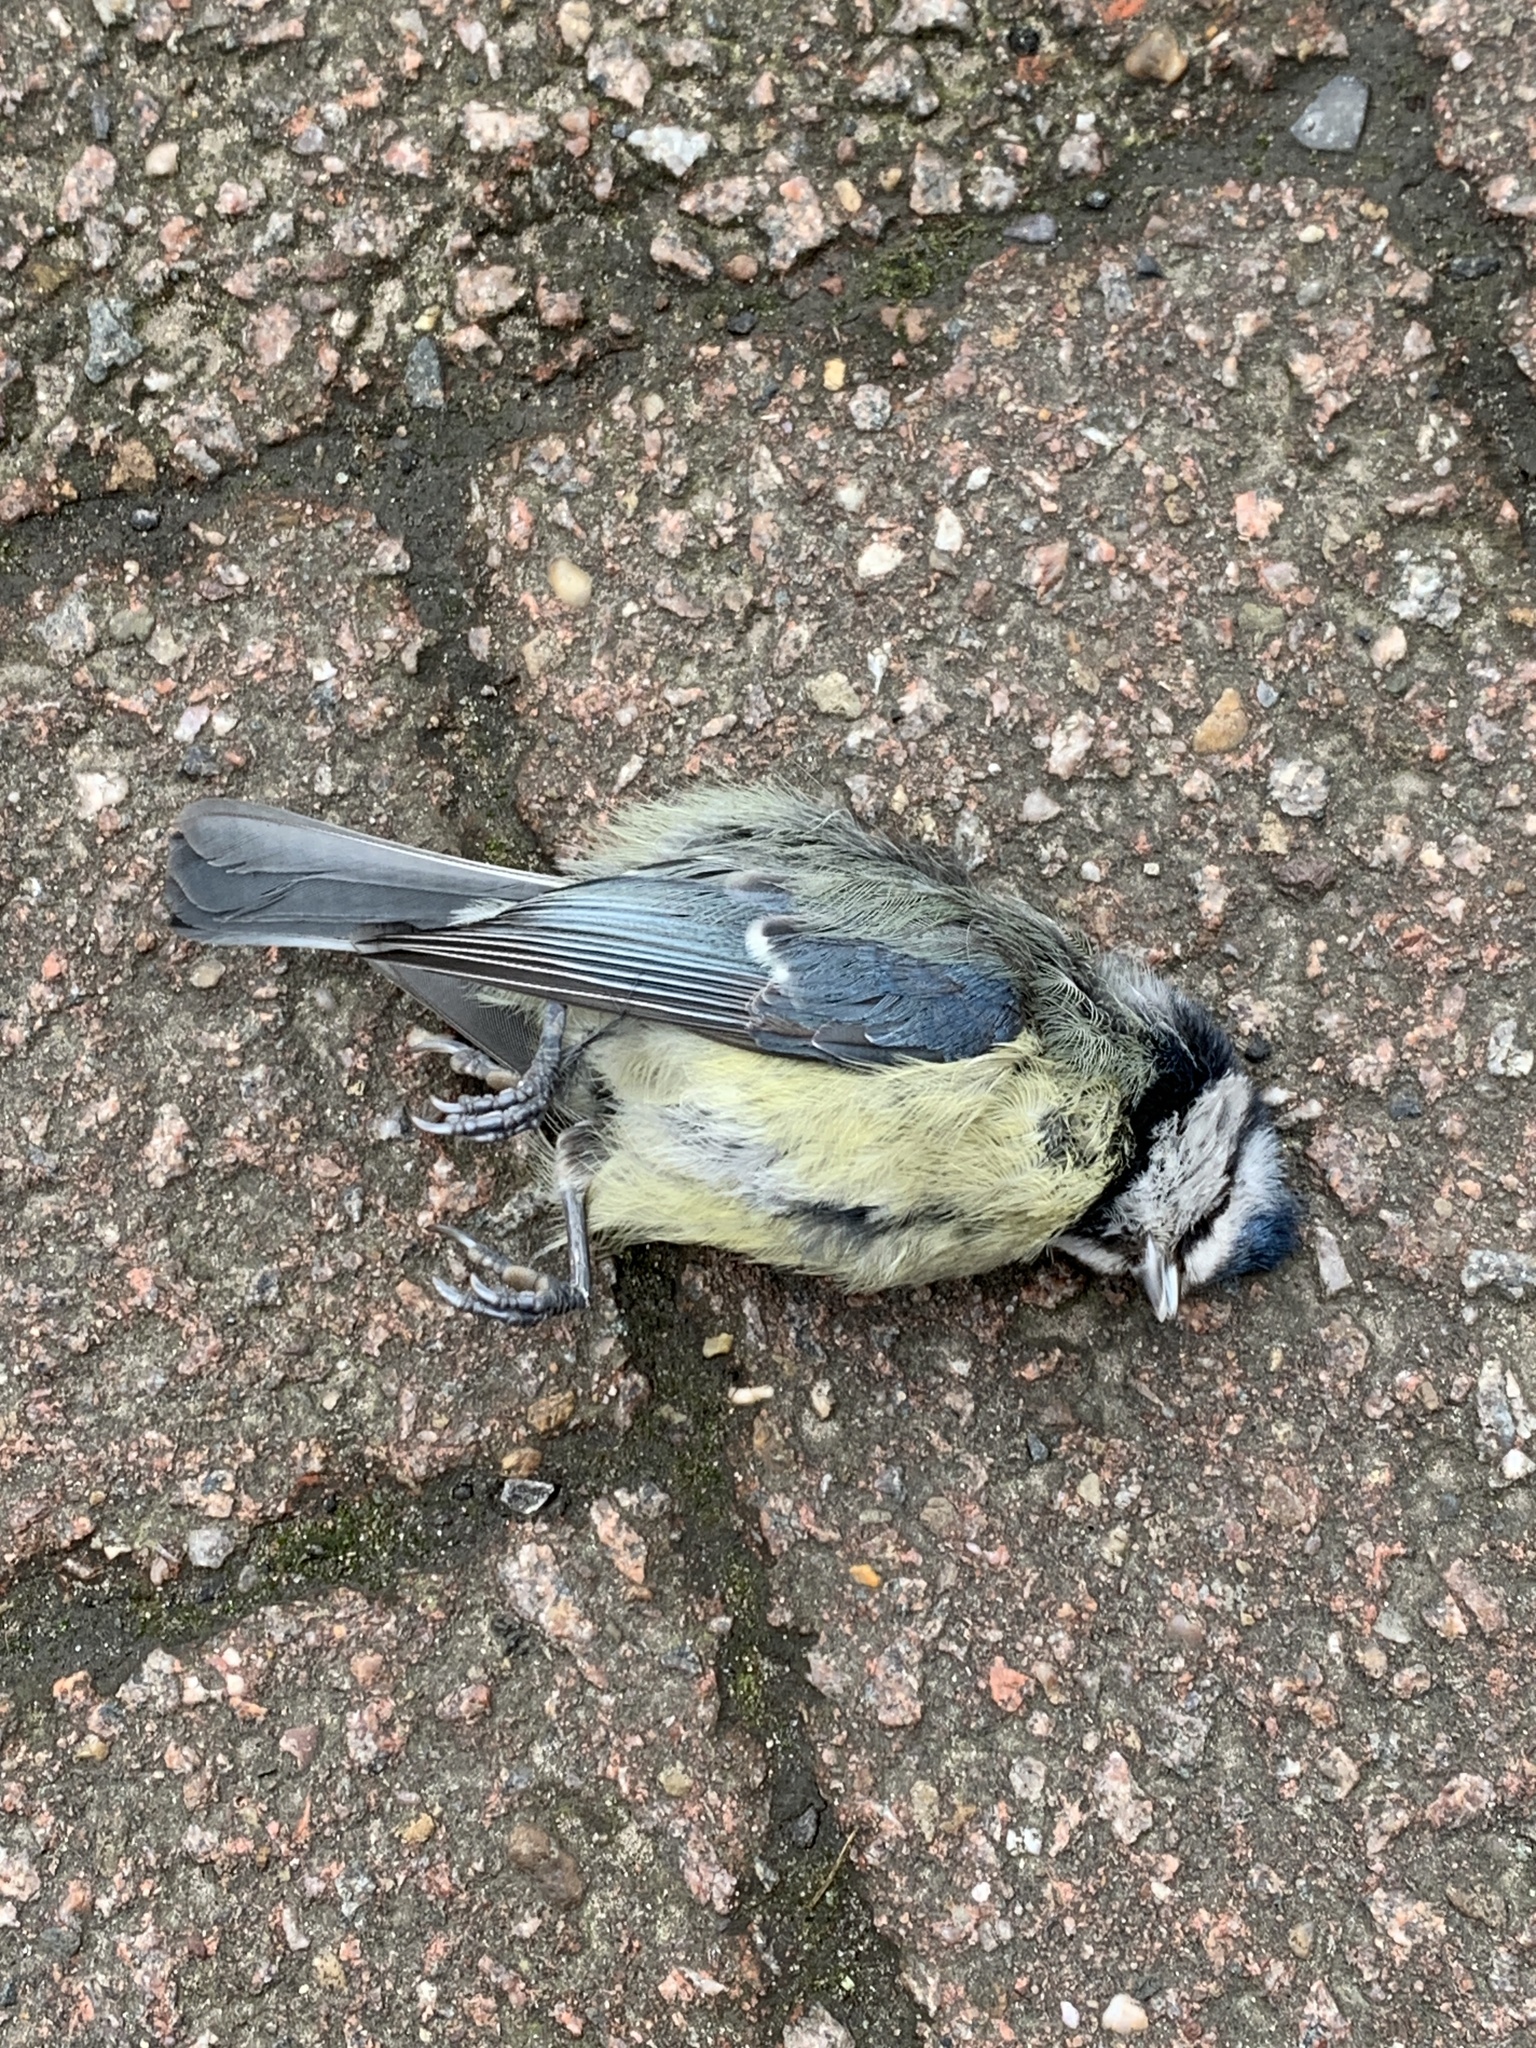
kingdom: Animalia
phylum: Chordata
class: Aves
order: Passeriformes
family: Paridae
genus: Cyanistes
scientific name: Cyanistes caeruleus
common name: Eurasian blue tit
